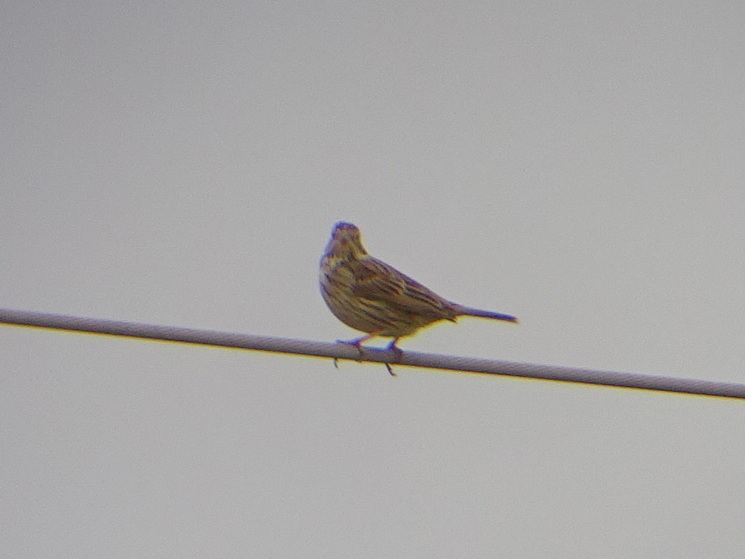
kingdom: Animalia
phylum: Chordata
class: Aves
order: Passeriformes
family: Emberizidae
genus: Emberiza
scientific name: Emberiza calandra
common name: Corn bunting
